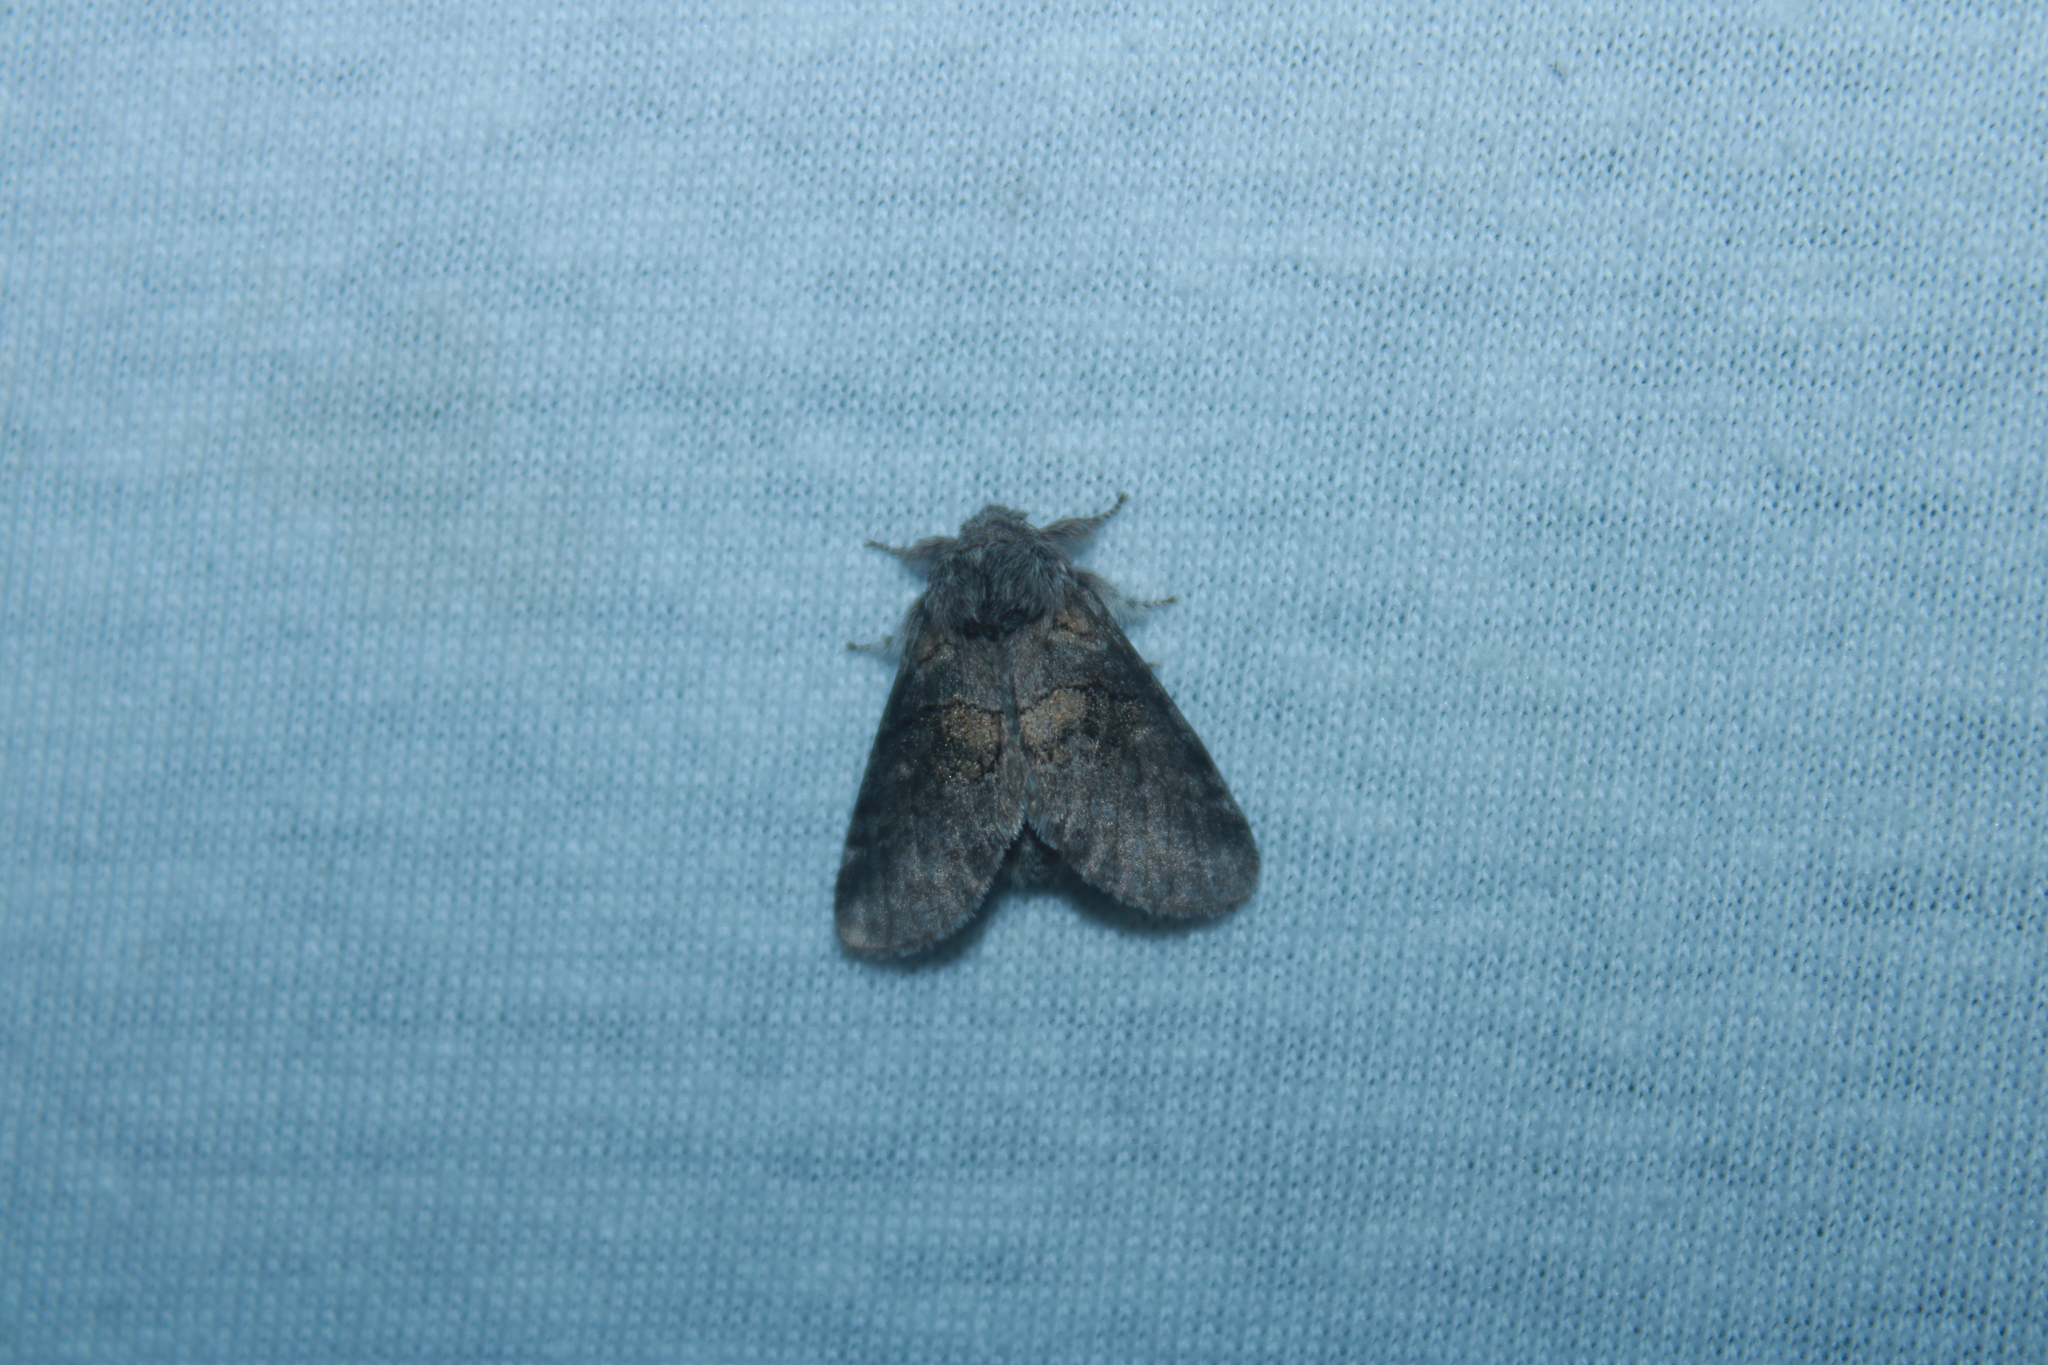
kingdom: Animalia
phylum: Arthropoda
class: Insecta
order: Lepidoptera
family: Notodontidae
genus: Gluphisia
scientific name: Gluphisia septentrionis
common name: Common gluphisia
